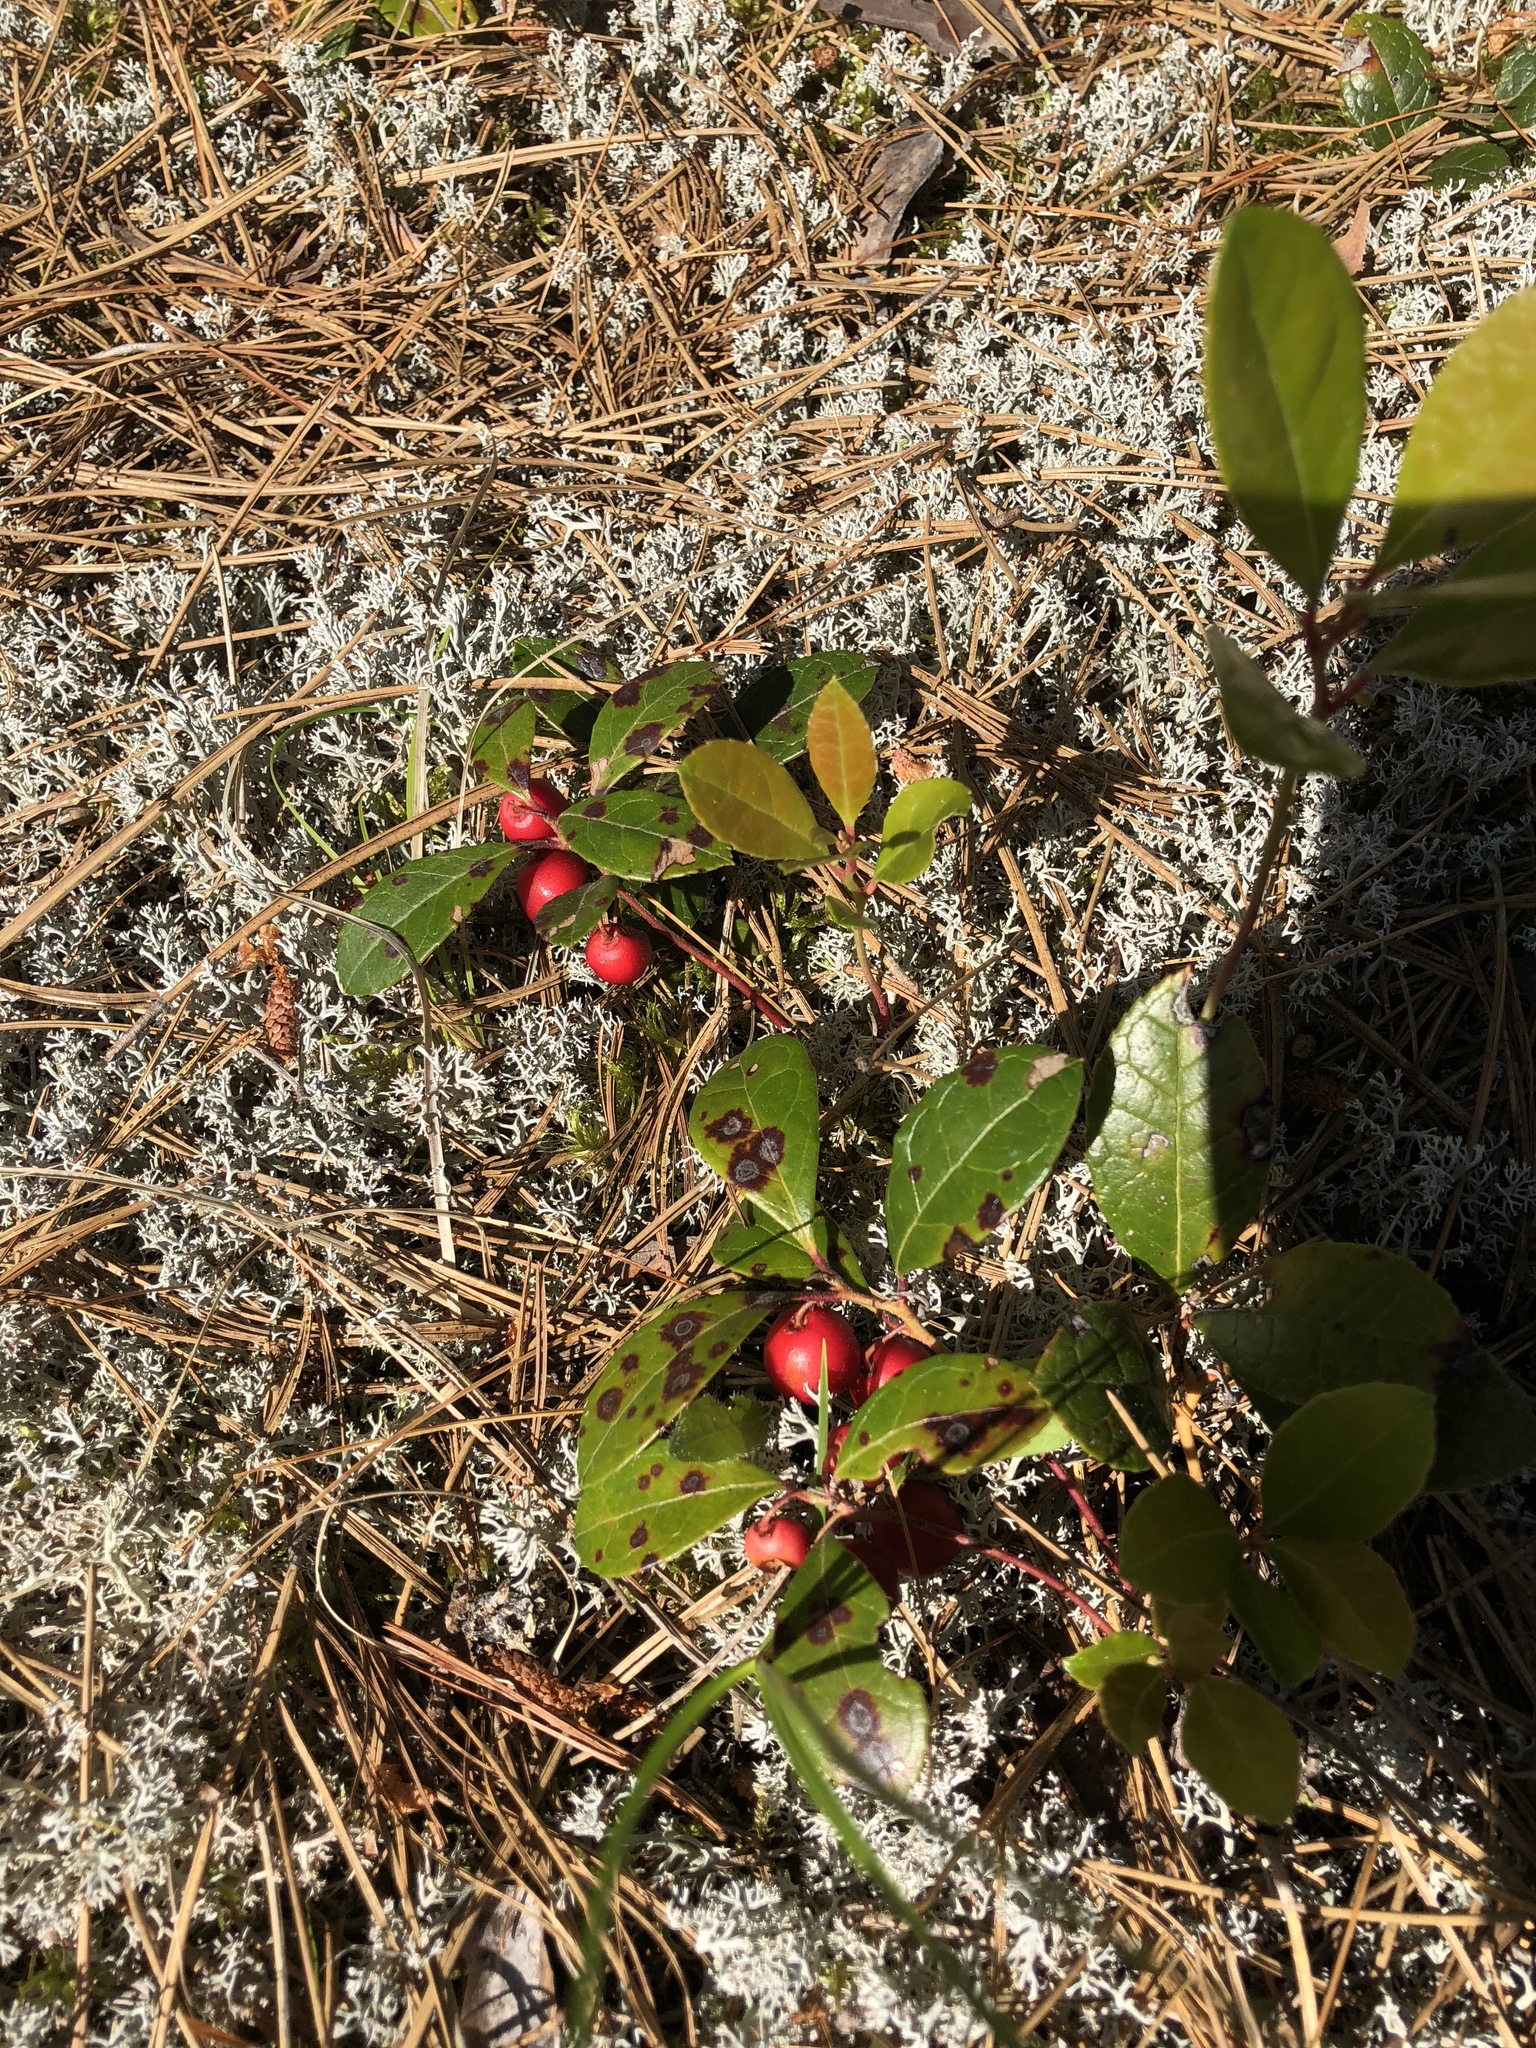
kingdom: Plantae
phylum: Tracheophyta
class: Magnoliopsida
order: Ericales
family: Ericaceae
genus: Gaultheria
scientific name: Gaultheria procumbens
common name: Checkerberry
